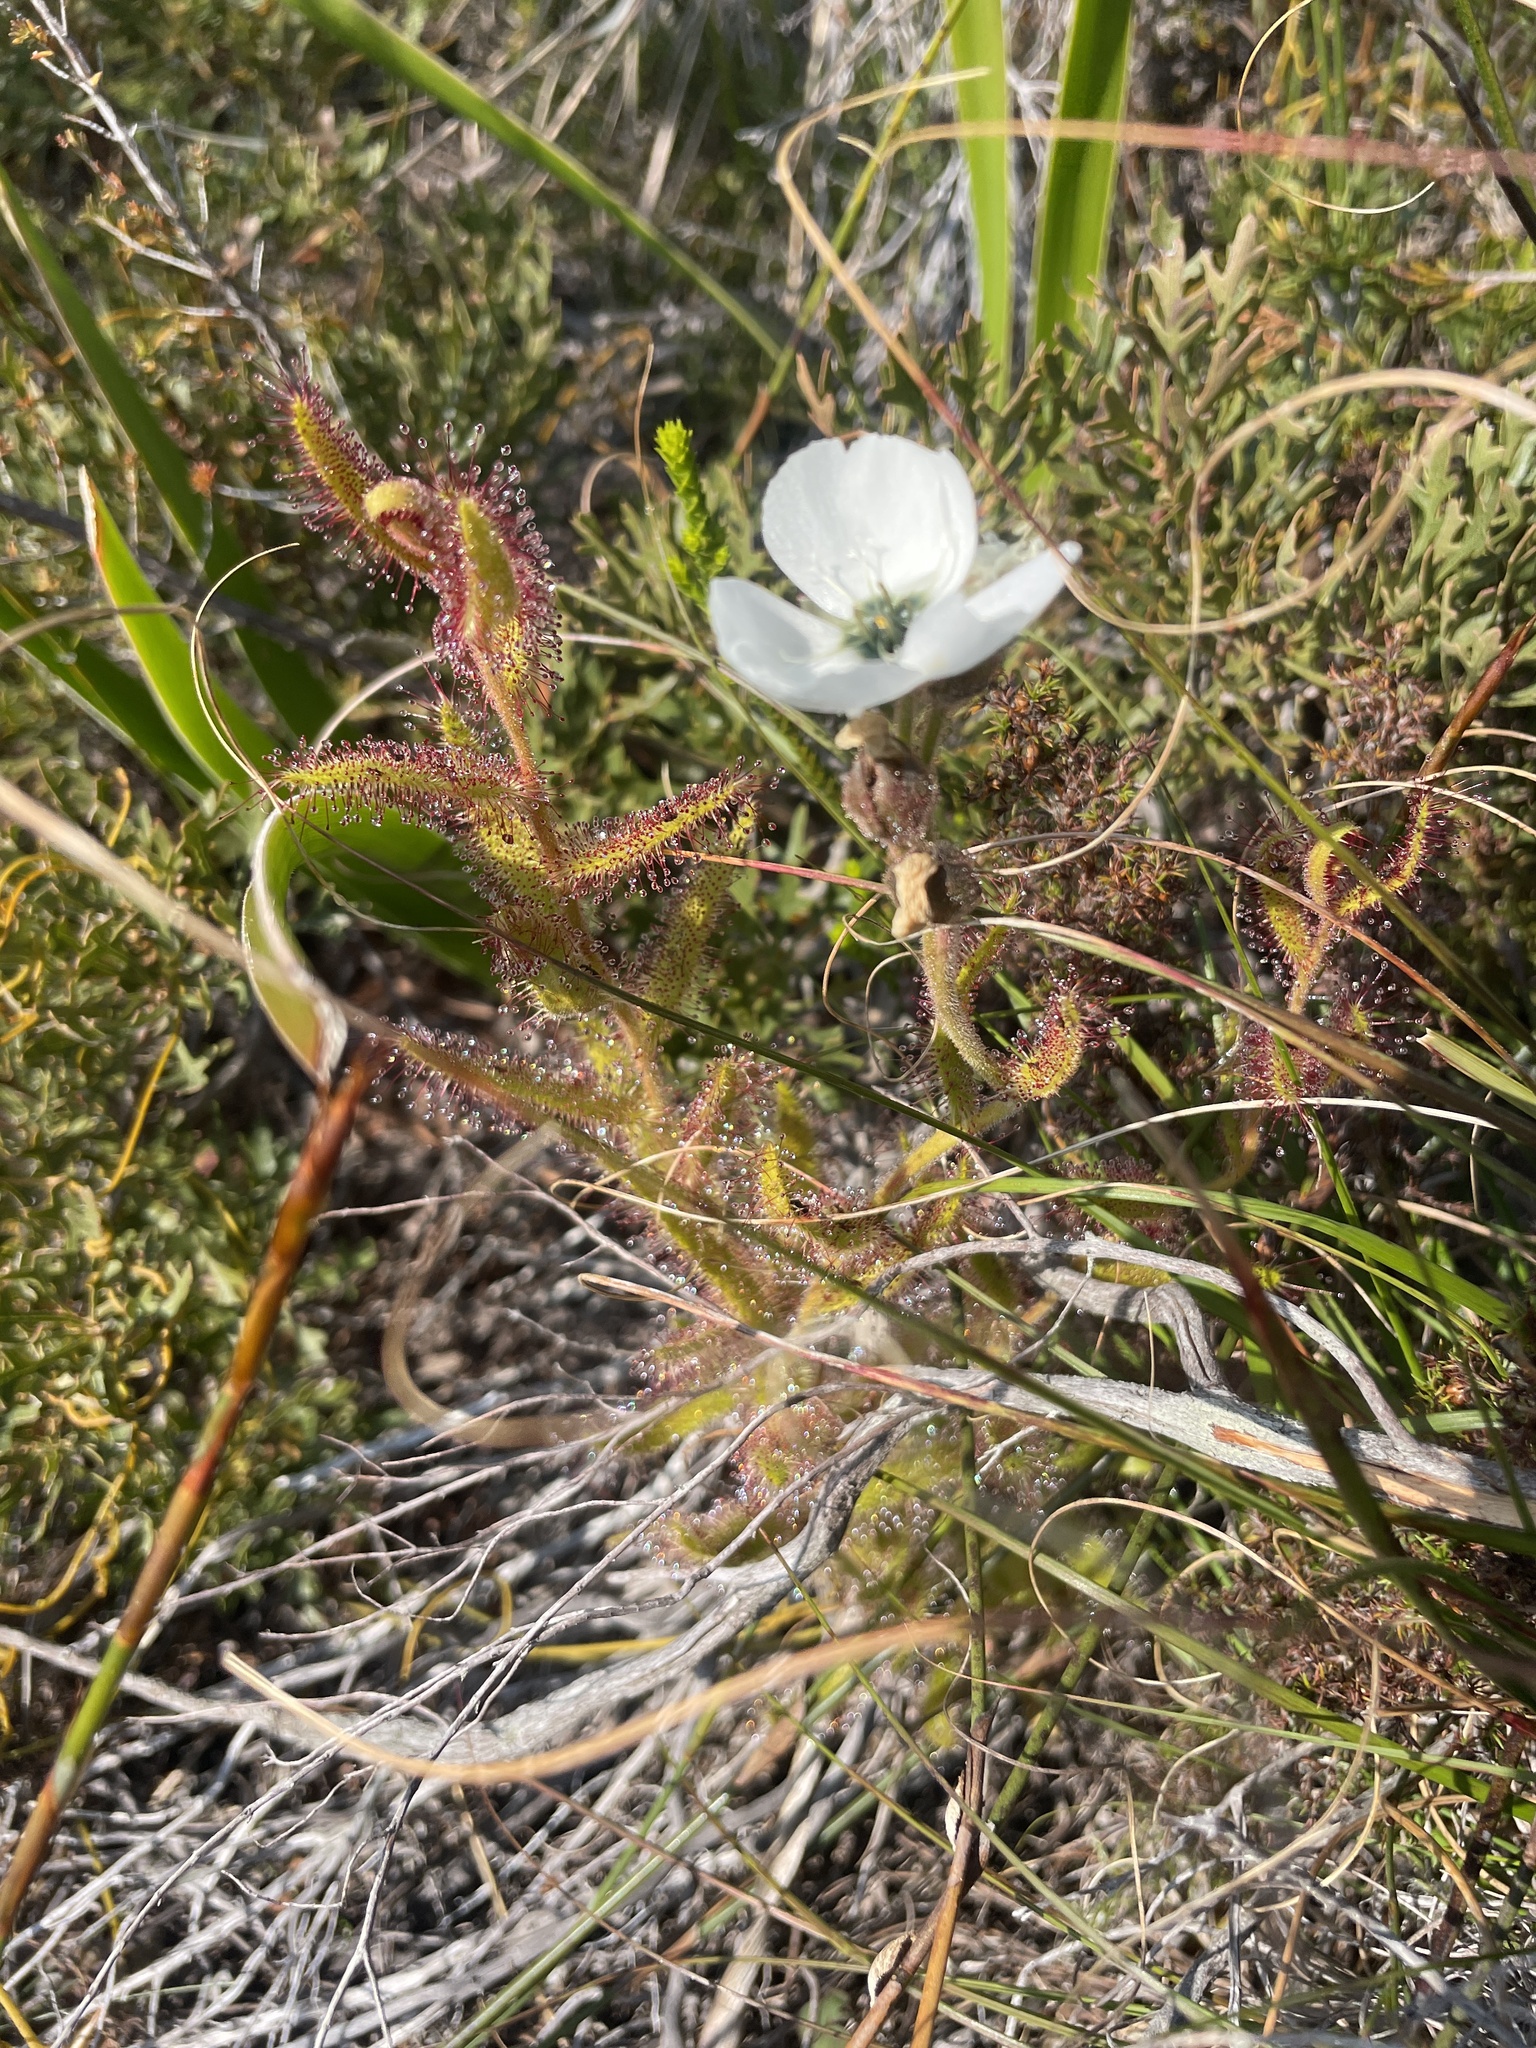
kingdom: Plantae
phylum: Tracheophyta
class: Magnoliopsida
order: Caryophyllales
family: Droseraceae
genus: Drosera
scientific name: Drosera cistiflora
